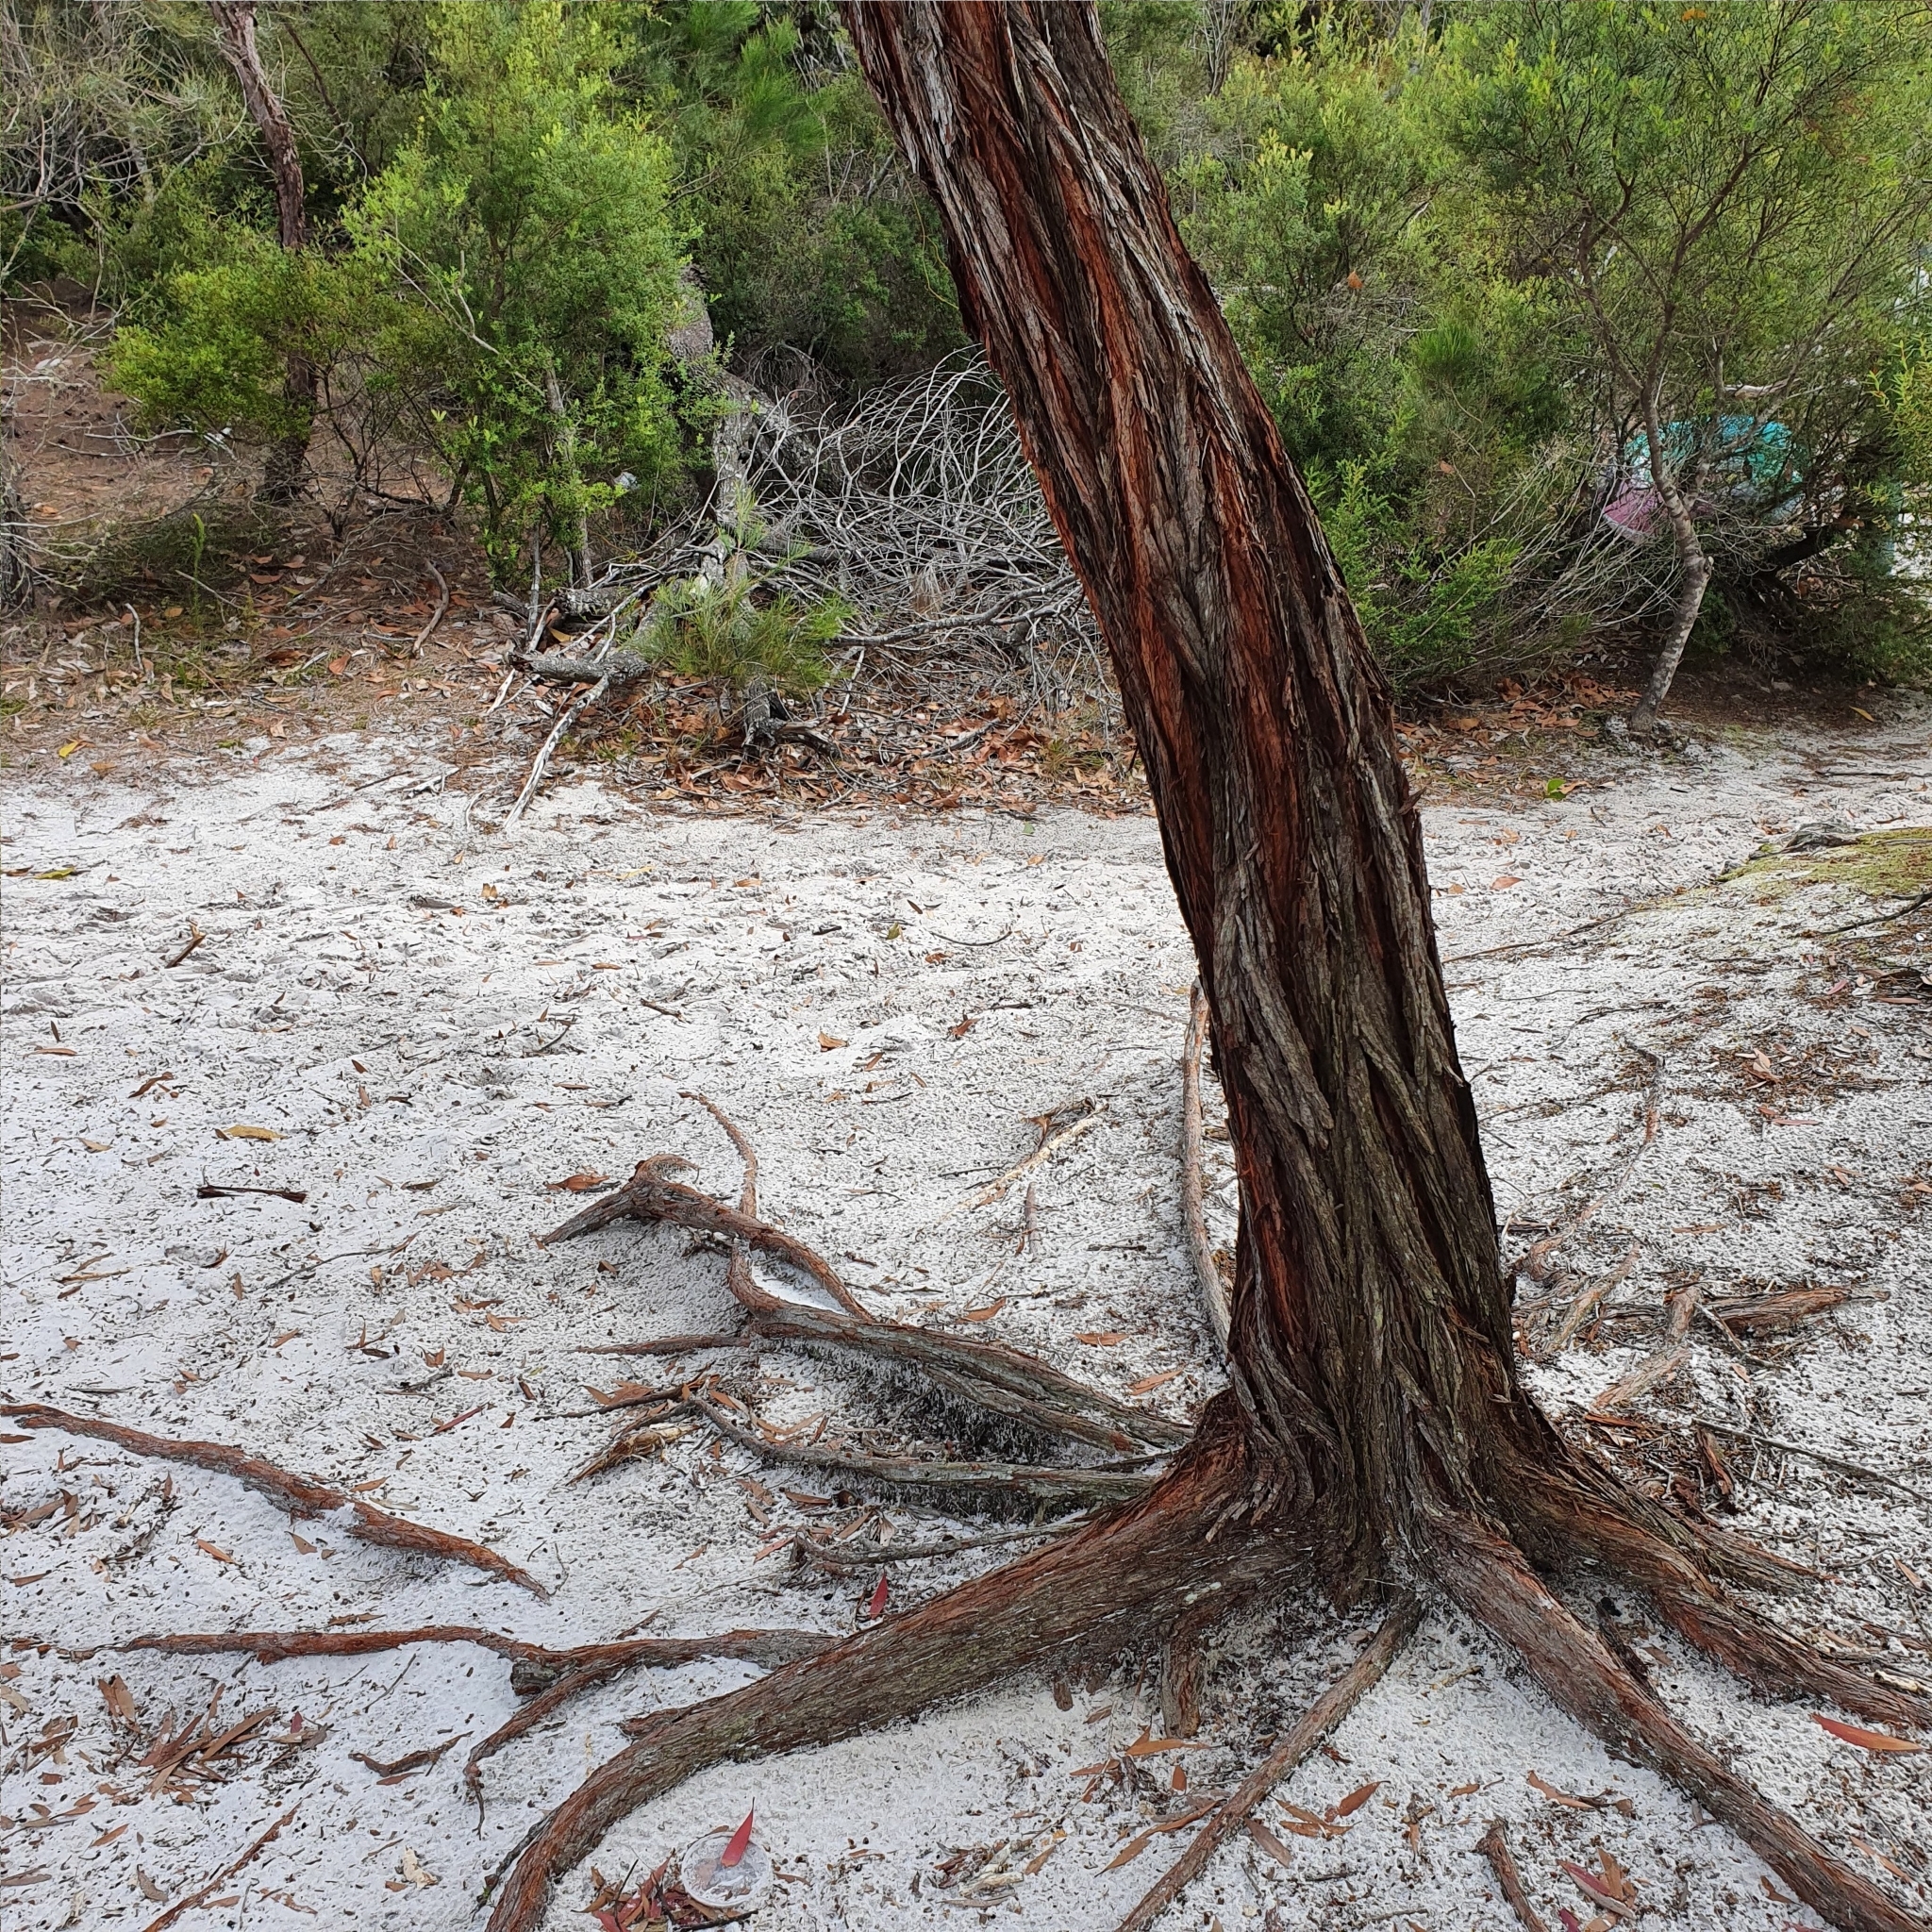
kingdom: Plantae
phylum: Tracheophyta
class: Magnoliopsida
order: Fabales
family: Fabaceae
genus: Acacia
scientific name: Acacia flavescens
